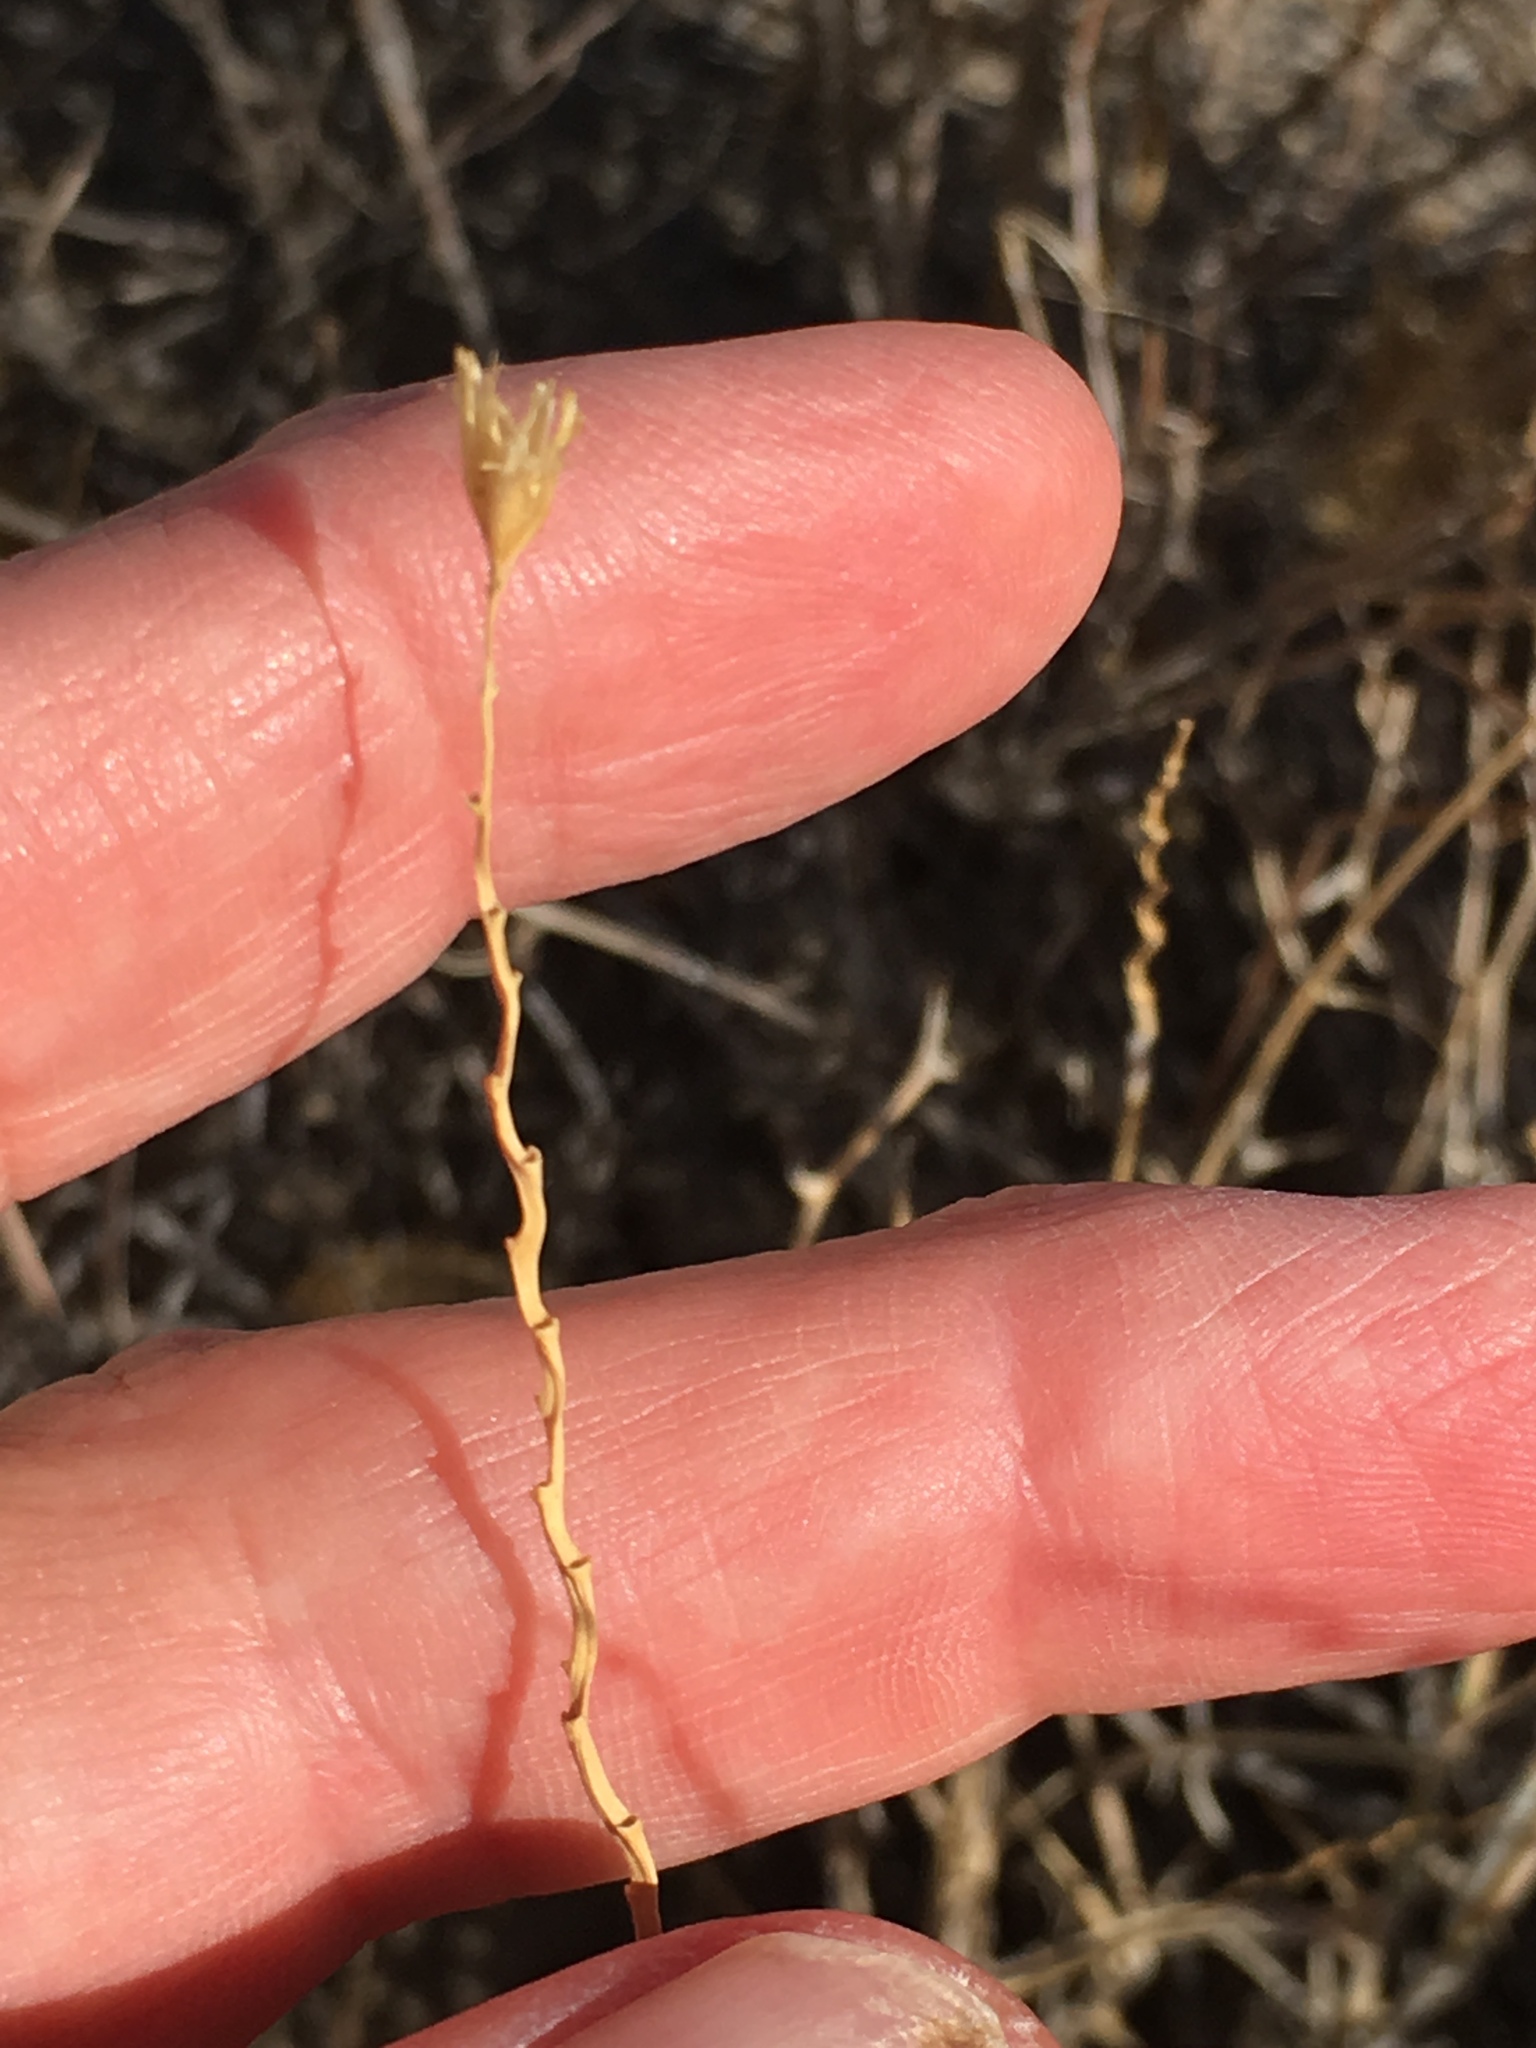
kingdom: Plantae
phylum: Tracheophyta
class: Liliopsida
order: Poales
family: Poaceae
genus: Hilaria
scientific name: Hilaria rigida
